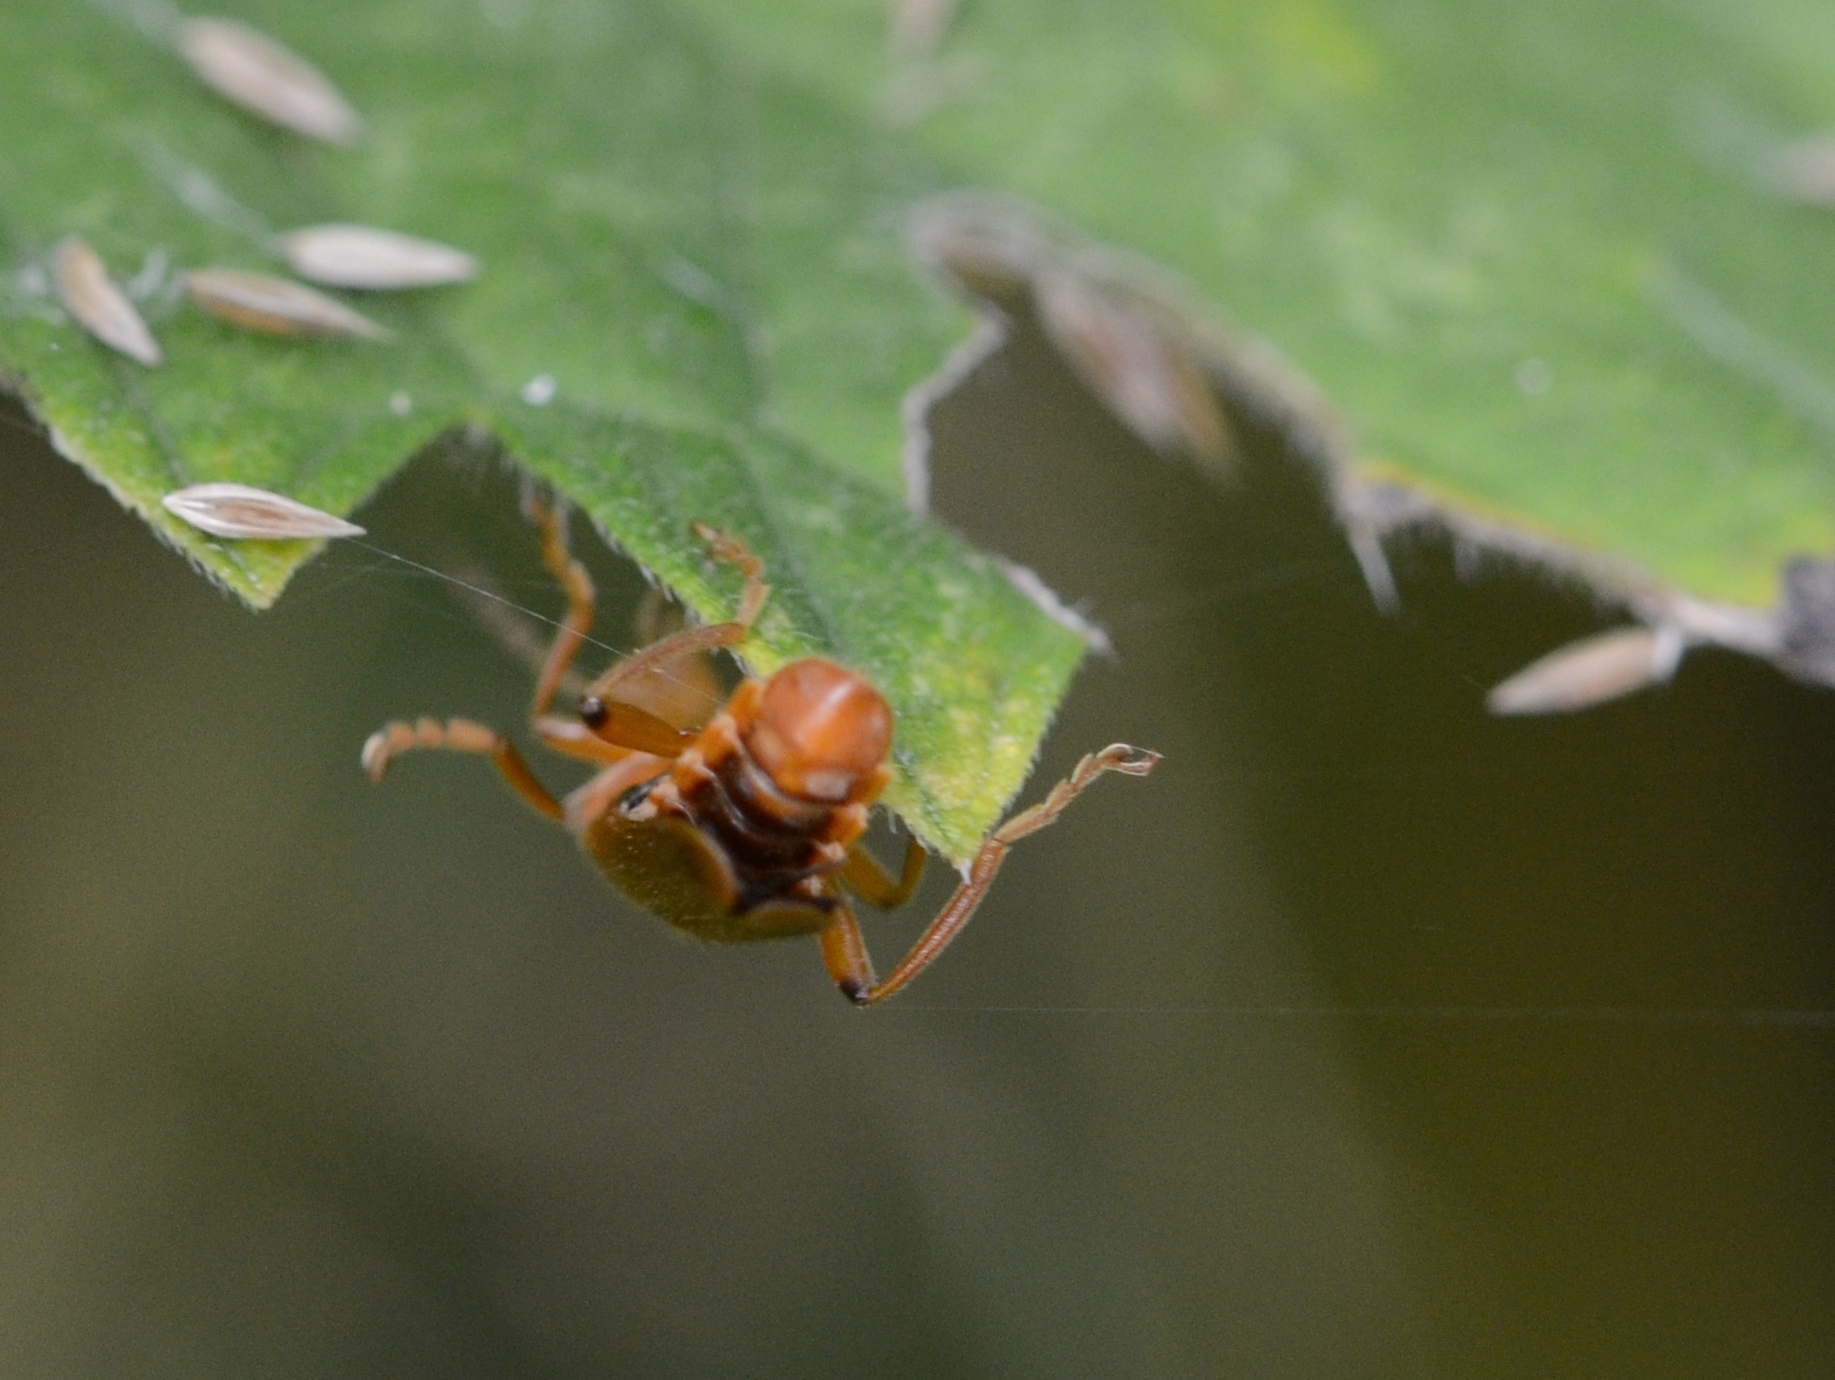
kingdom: Animalia
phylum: Arthropoda
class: Insecta
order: Coleoptera
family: Cantharidae
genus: Cantharis
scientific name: Cantharis cryptica
